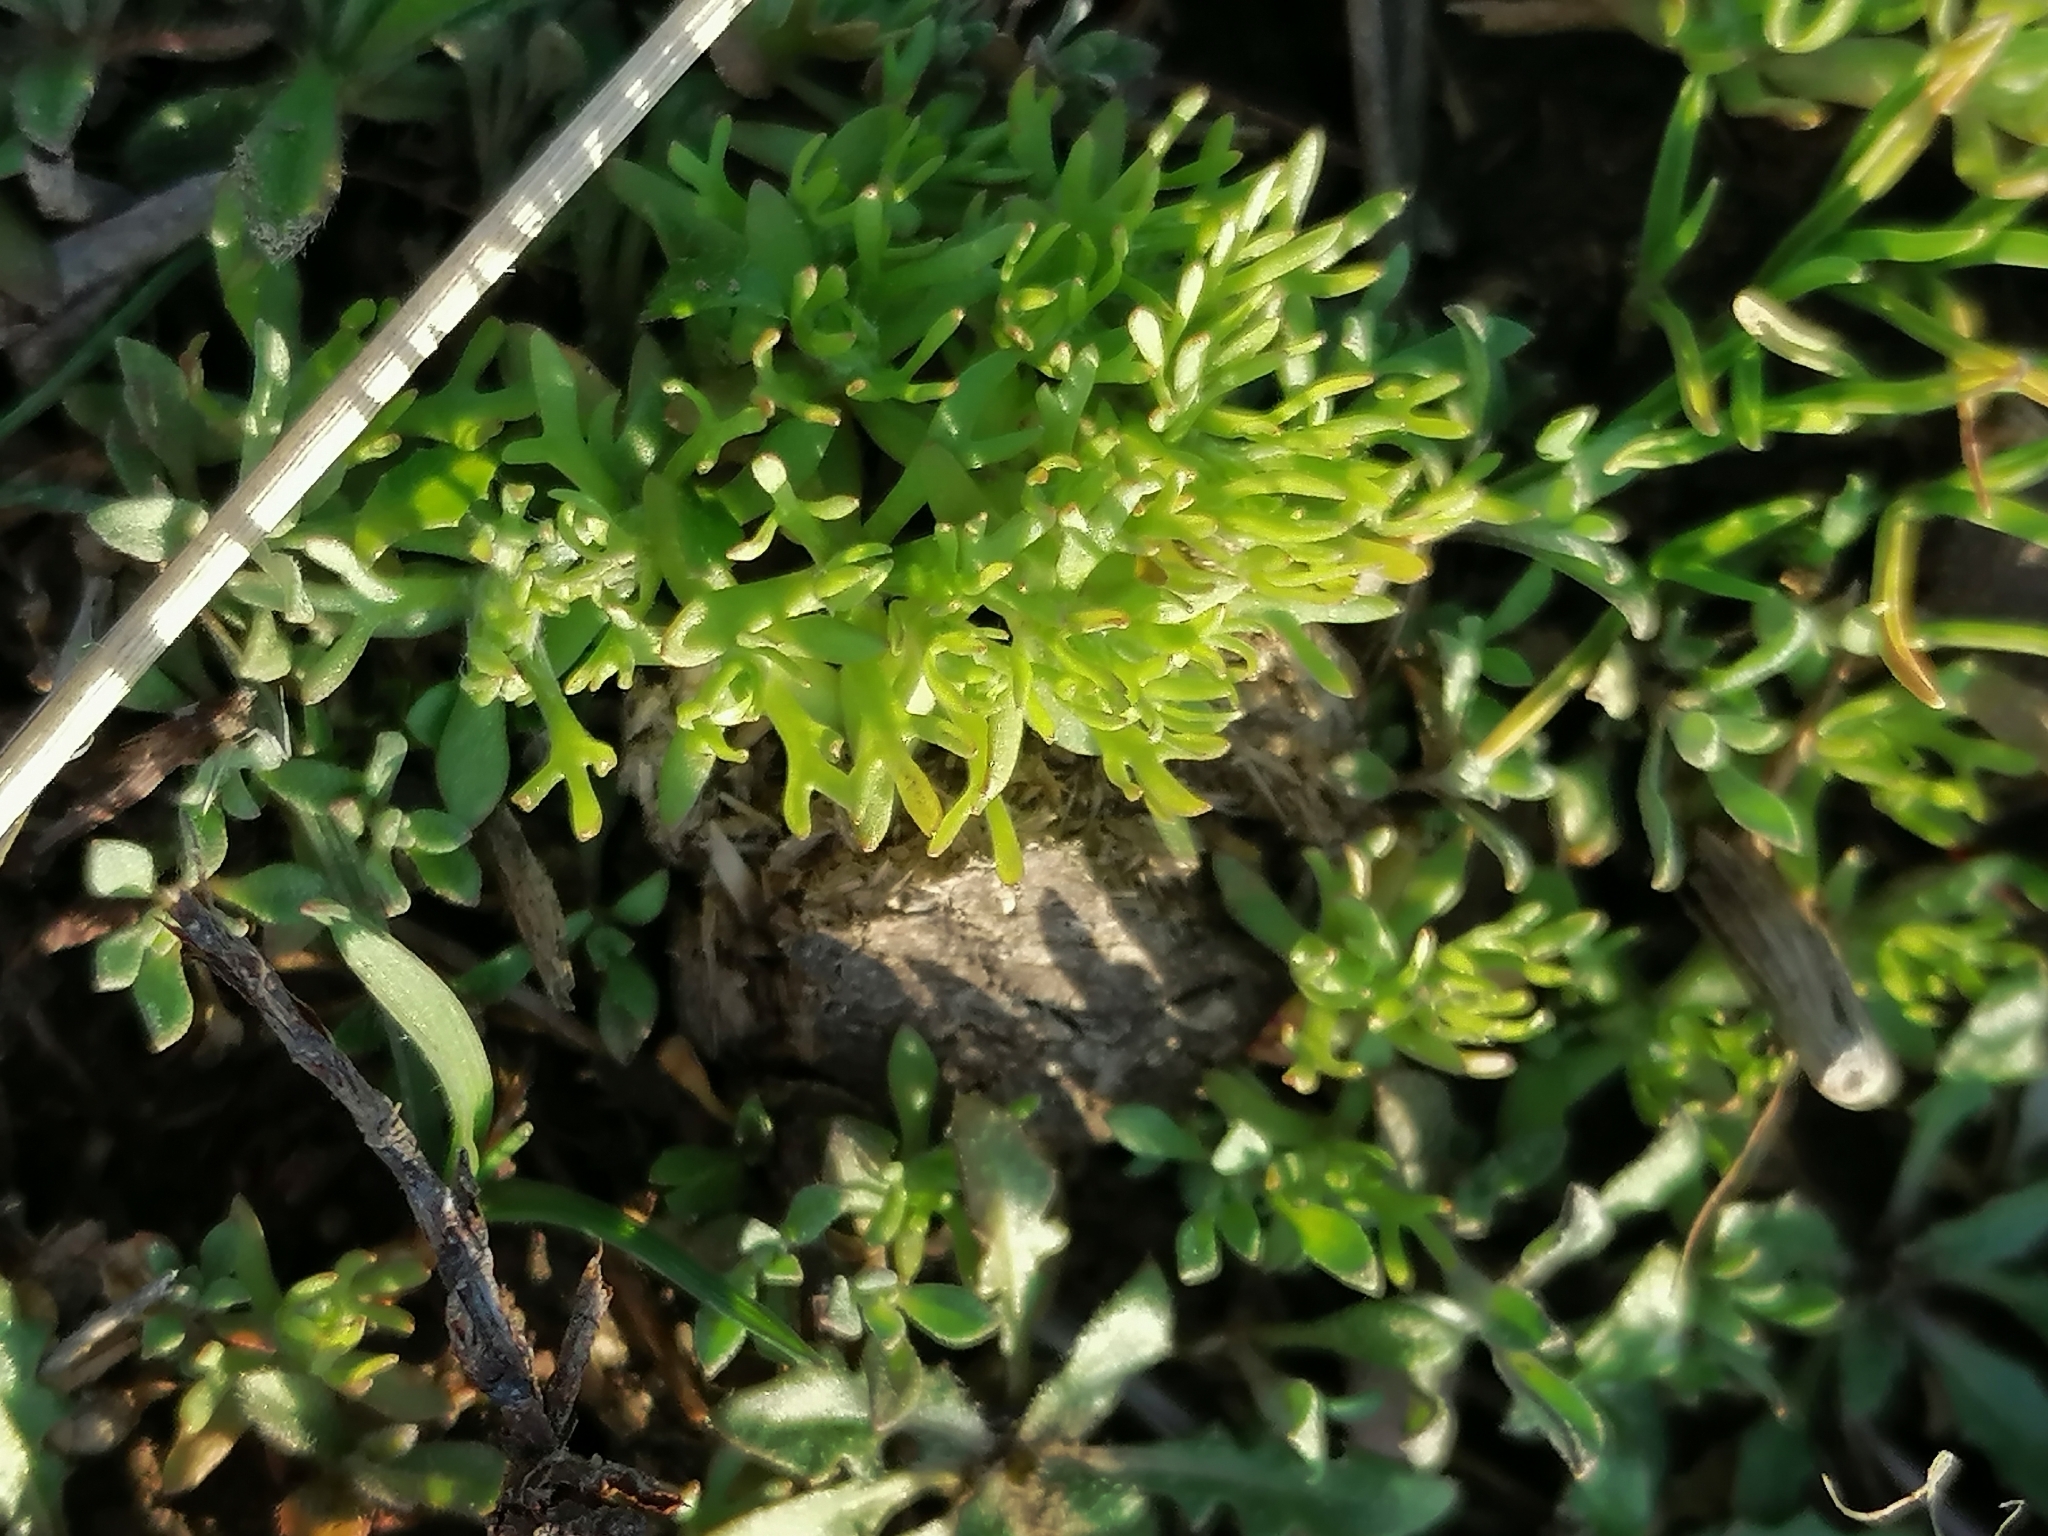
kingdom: Plantae
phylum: Tracheophyta
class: Magnoliopsida
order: Ranunculales
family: Ranunculaceae
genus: Ceratocephala
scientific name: Ceratocephala orthoceras
